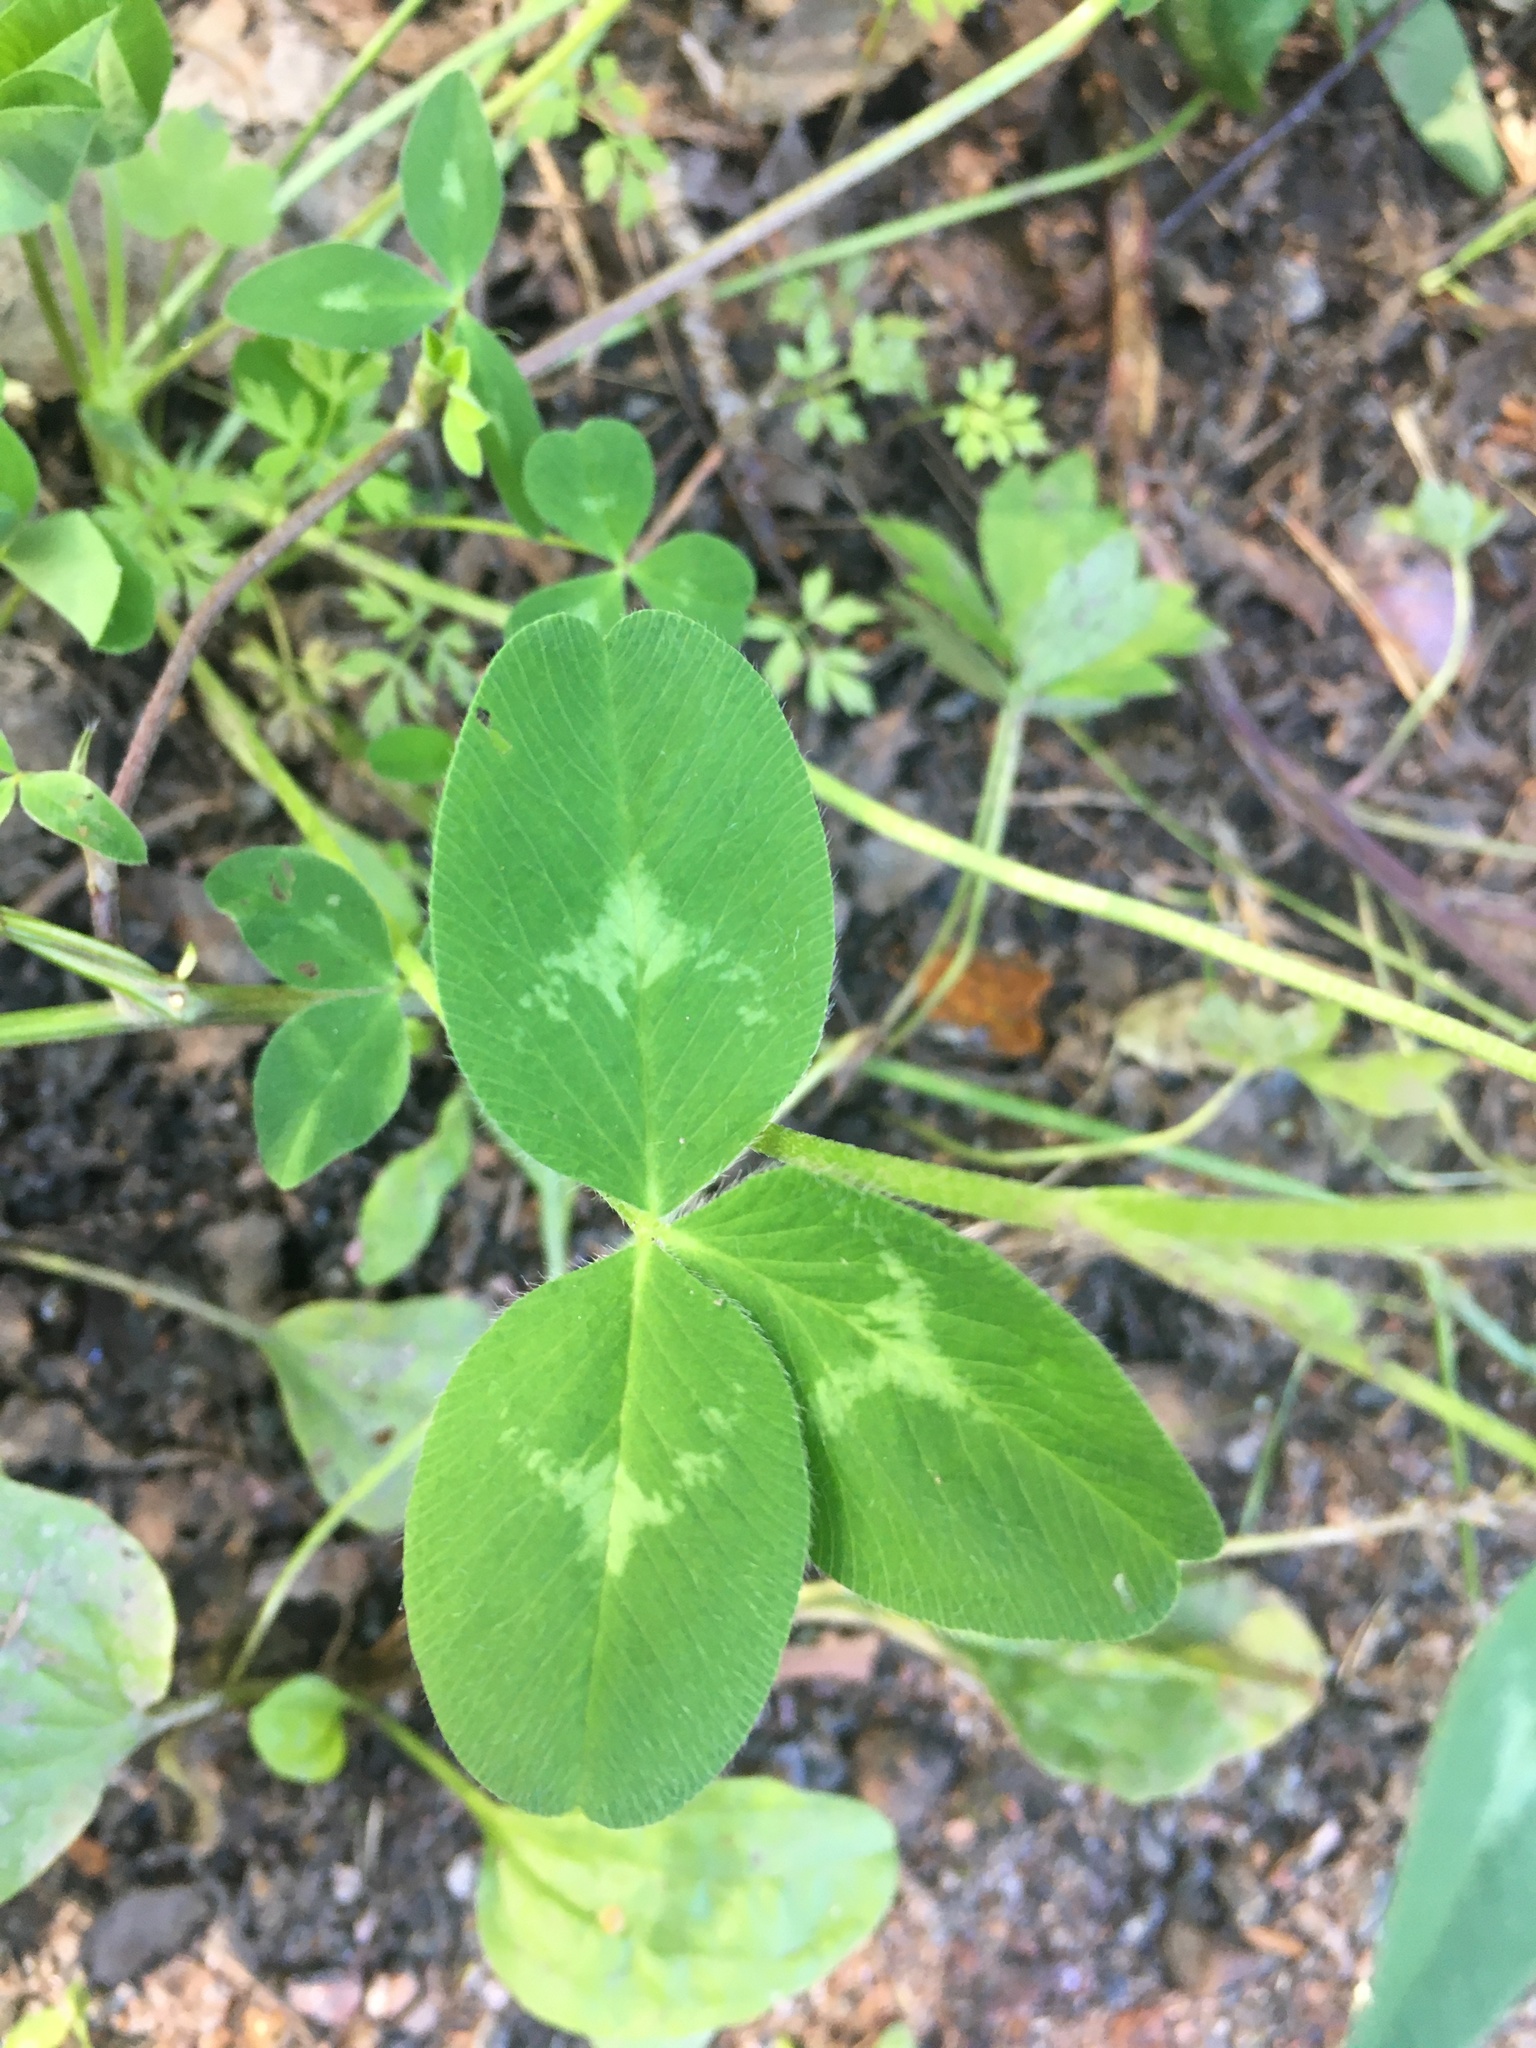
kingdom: Plantae
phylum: Tracheophyta
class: Magnoliopsida
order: Fabales
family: Fabaceae
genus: Trifolium
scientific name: Trifolium pratense
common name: Red clover
